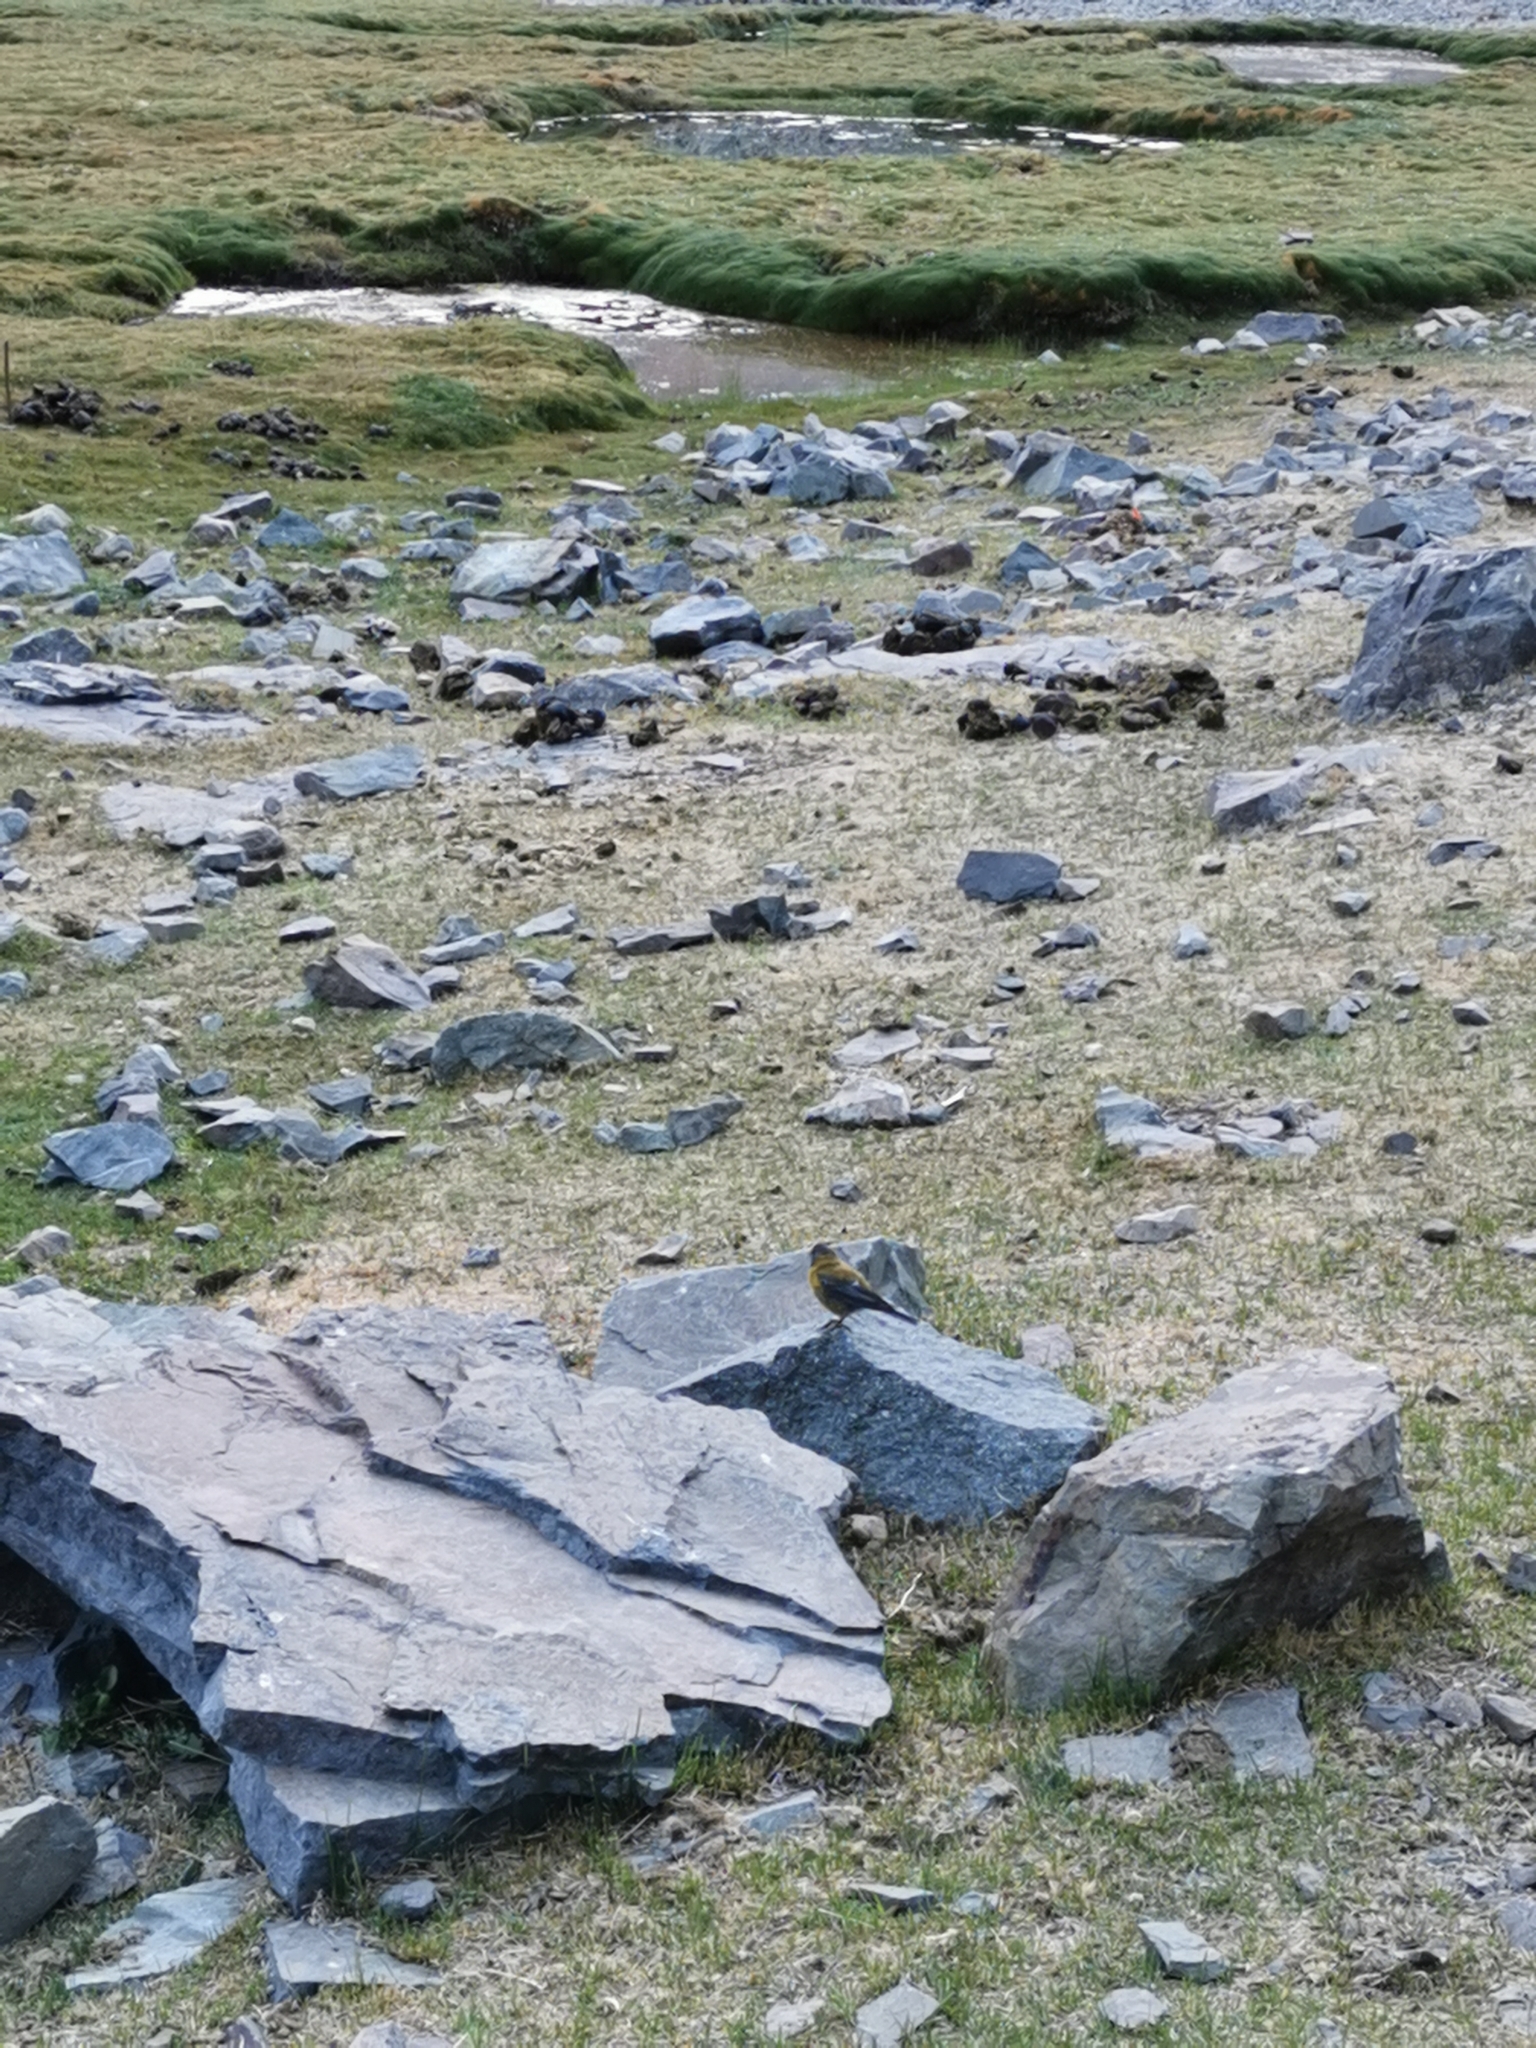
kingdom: Animalia
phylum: Chordata
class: Aves
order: Passeriformes
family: Thraupidae
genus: Phrygilus
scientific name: Phrygilus gayi
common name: Grey-hooded sierra finch
